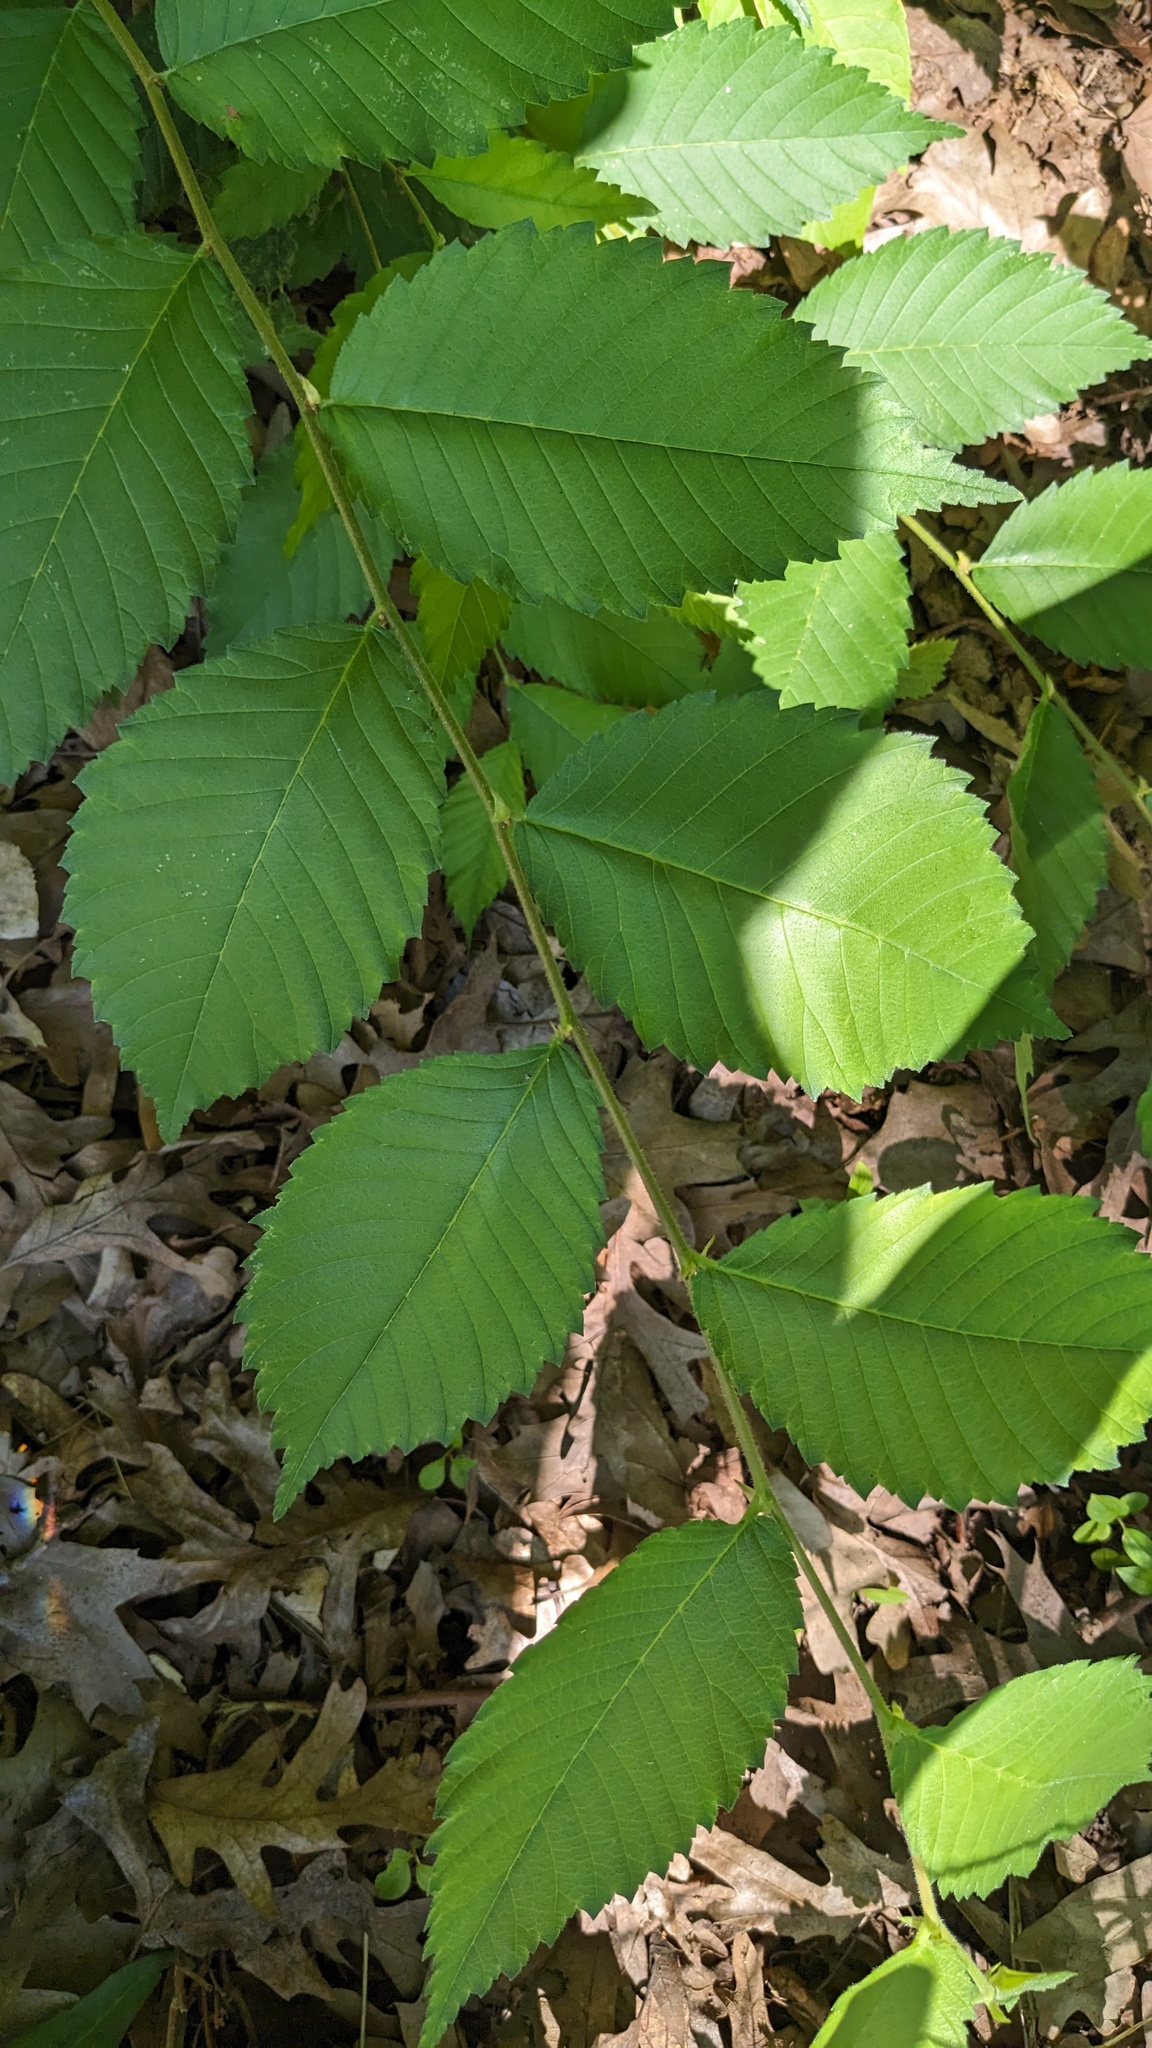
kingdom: Plantae
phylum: Tracheophyta
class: Magnoliopsida
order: Rosales
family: Ulmaceae
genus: Ulmus
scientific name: Ulmus americana
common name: American elm
